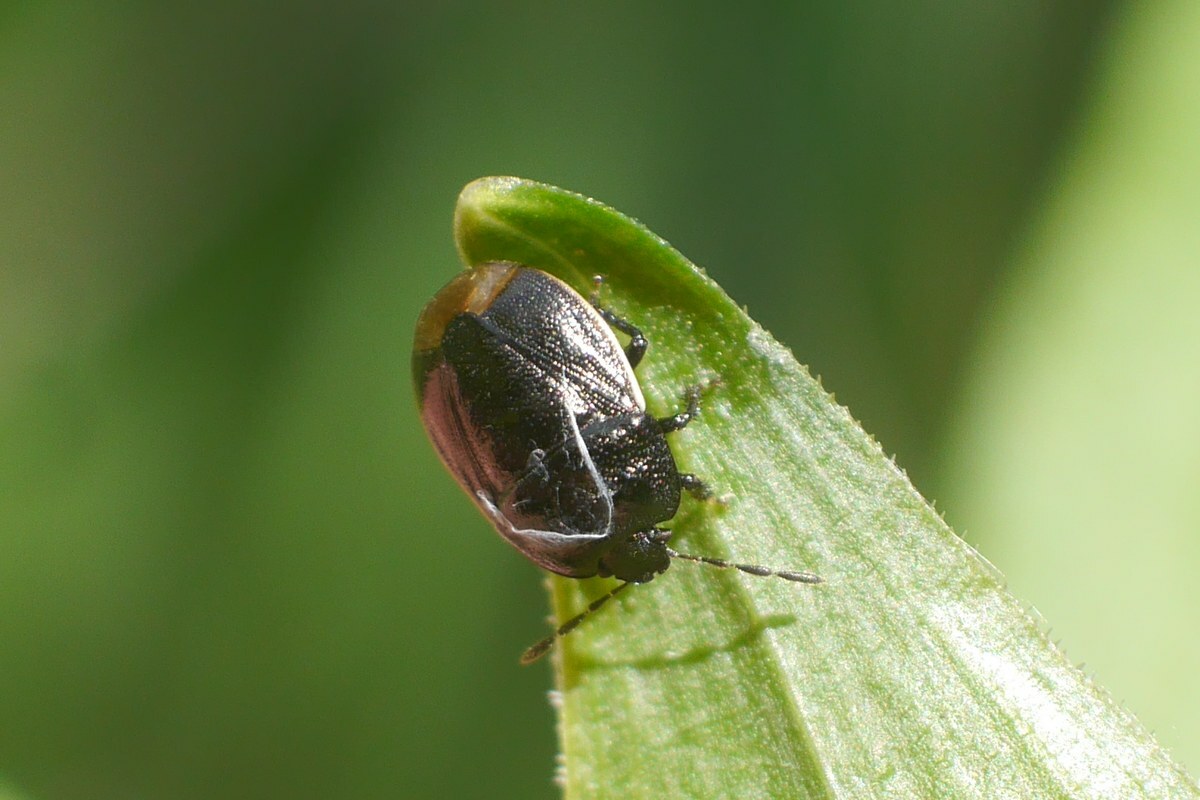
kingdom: Animalia
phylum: Arthropoda
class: Insecta
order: Hemiptera
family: Cydnidae
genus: Legnotus
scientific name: Legnotus limbosus
